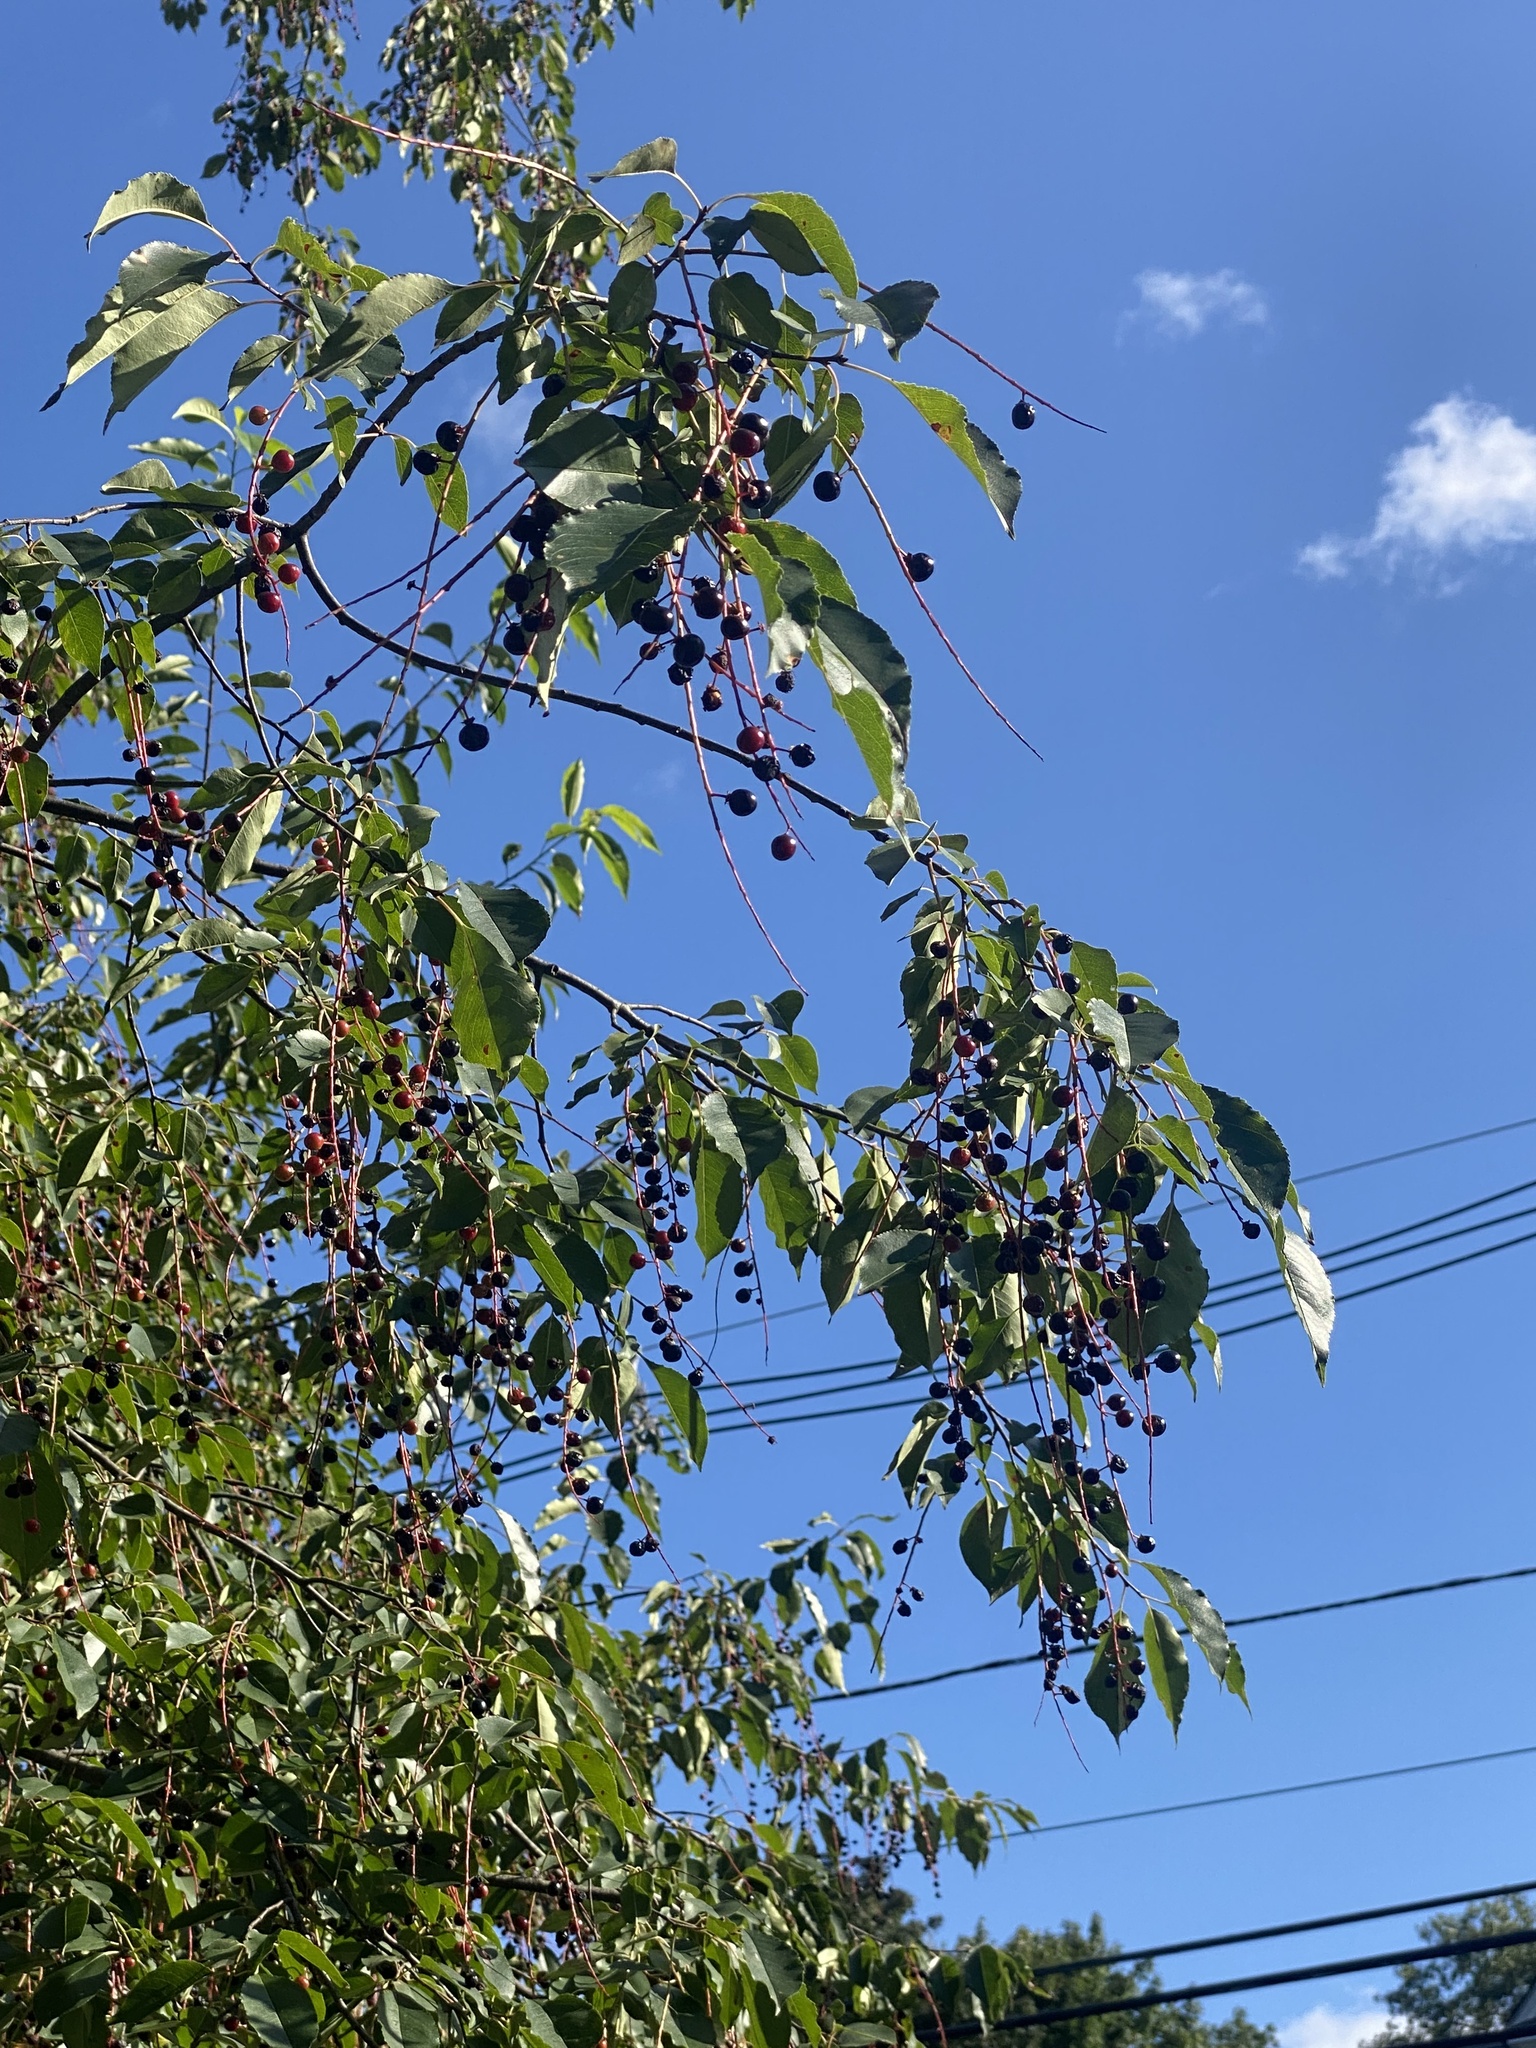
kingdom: Plantae
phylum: Tracheophyta
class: Magnoliopsida
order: Rosales
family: Rosaceae
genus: Prunus
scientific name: Prunus serotina
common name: Black cherry
